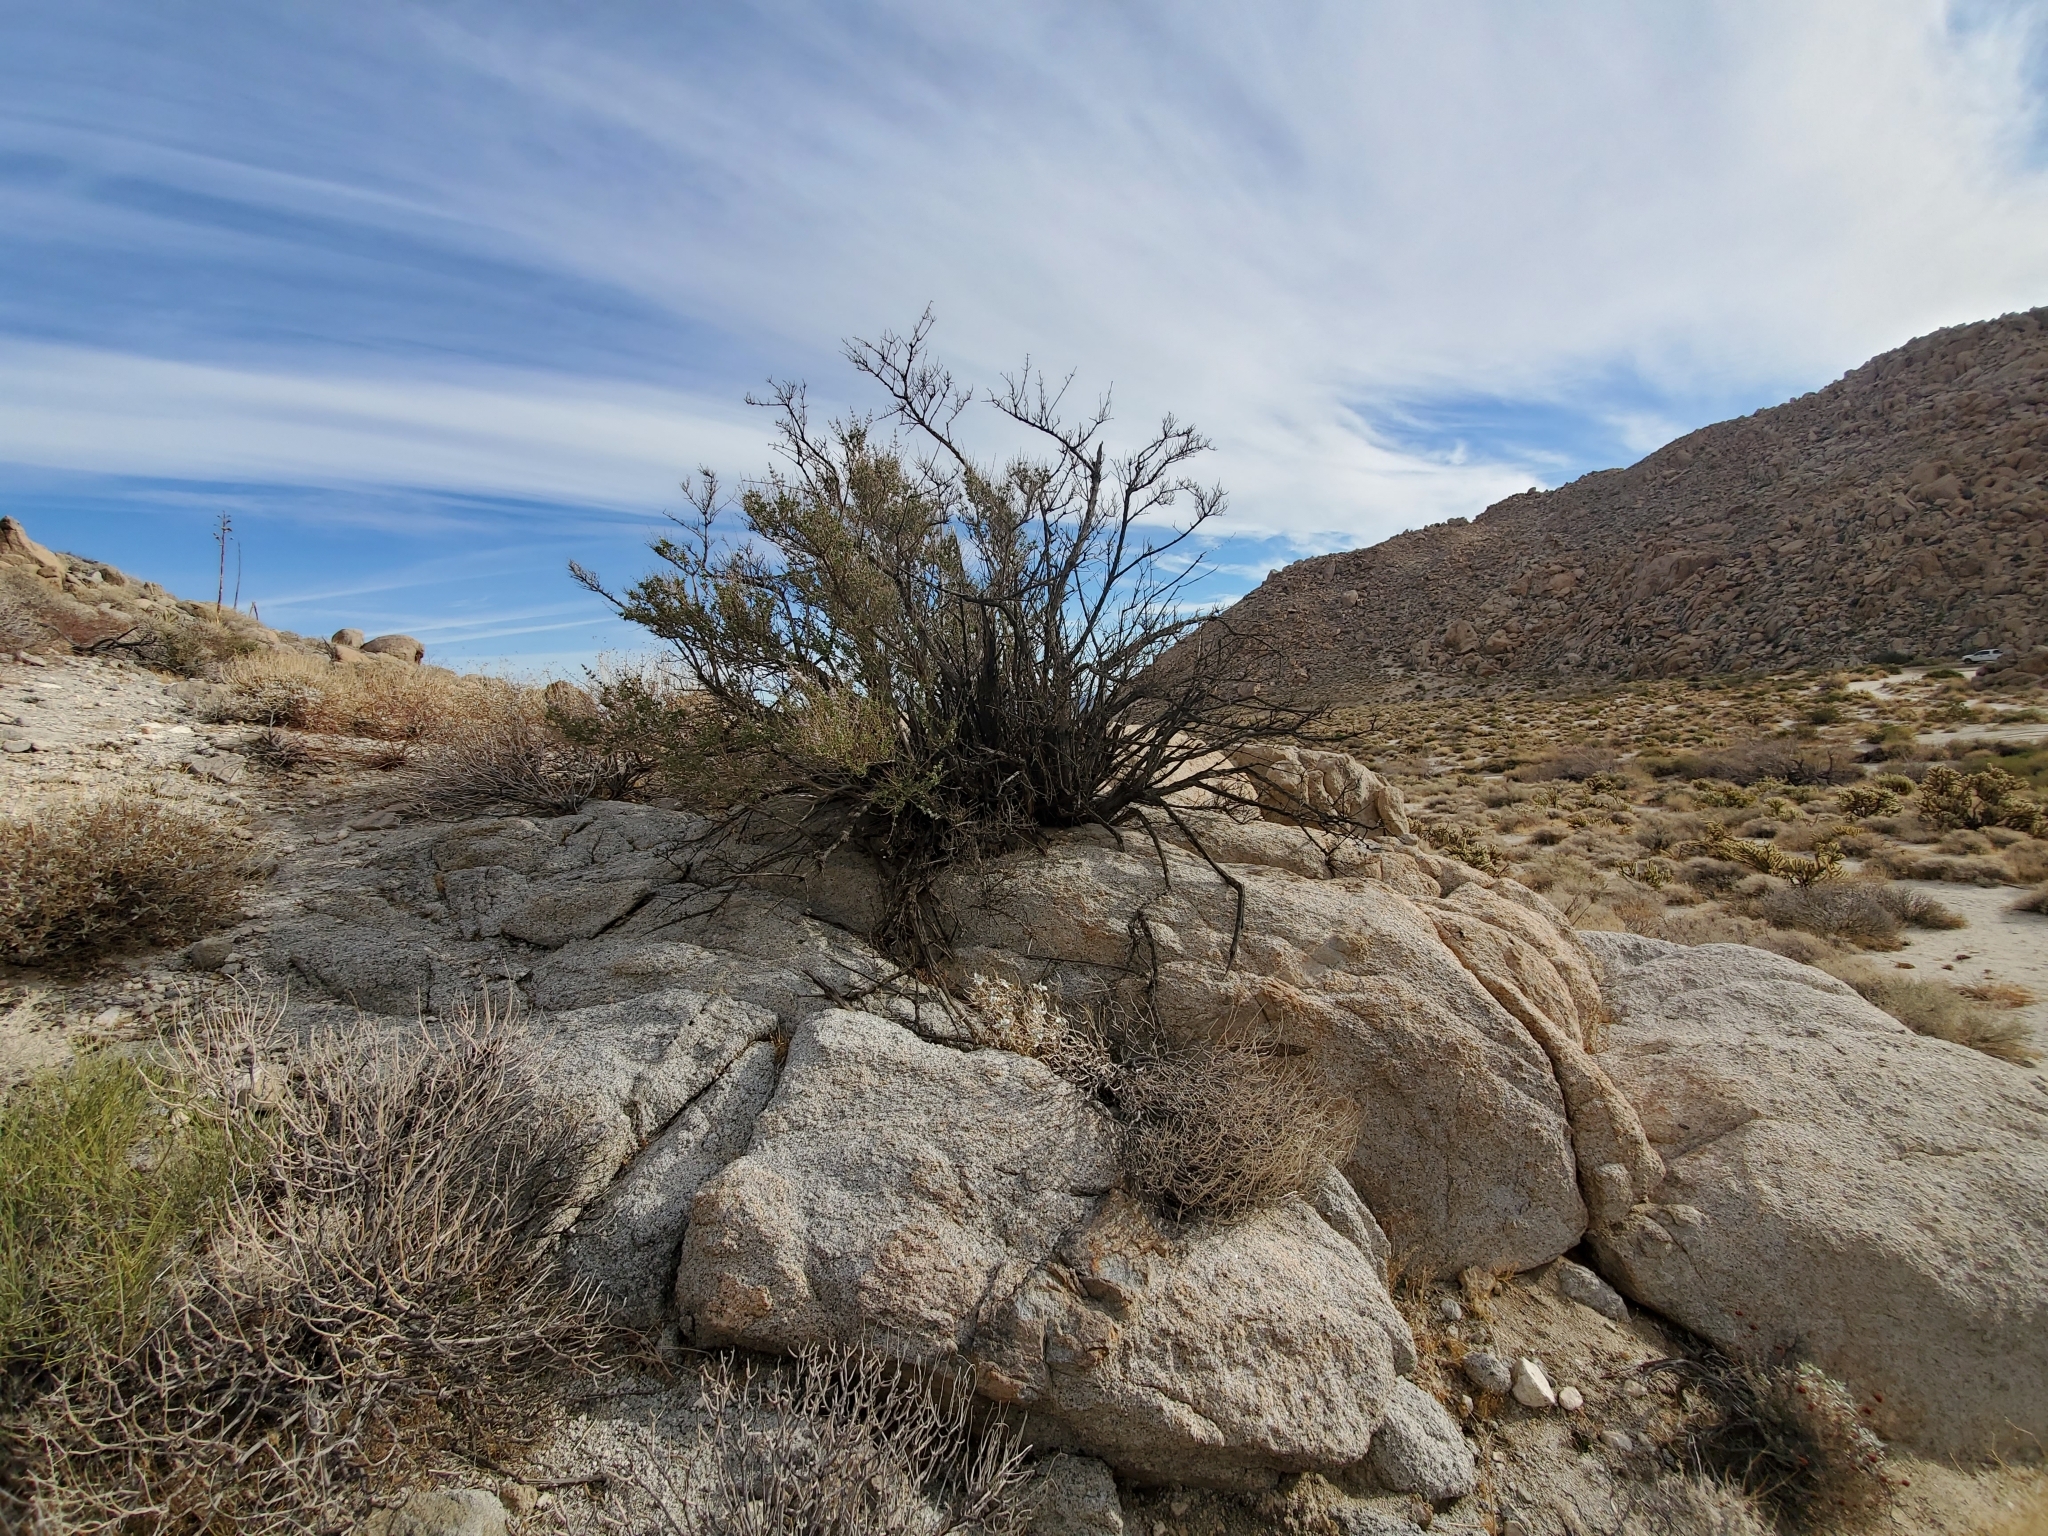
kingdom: Plantae
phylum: Tracheophyta
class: Magnoliopsida
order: Lamiales
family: Lamiaceae
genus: Condea
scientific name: Condea emoryi
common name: Chia
